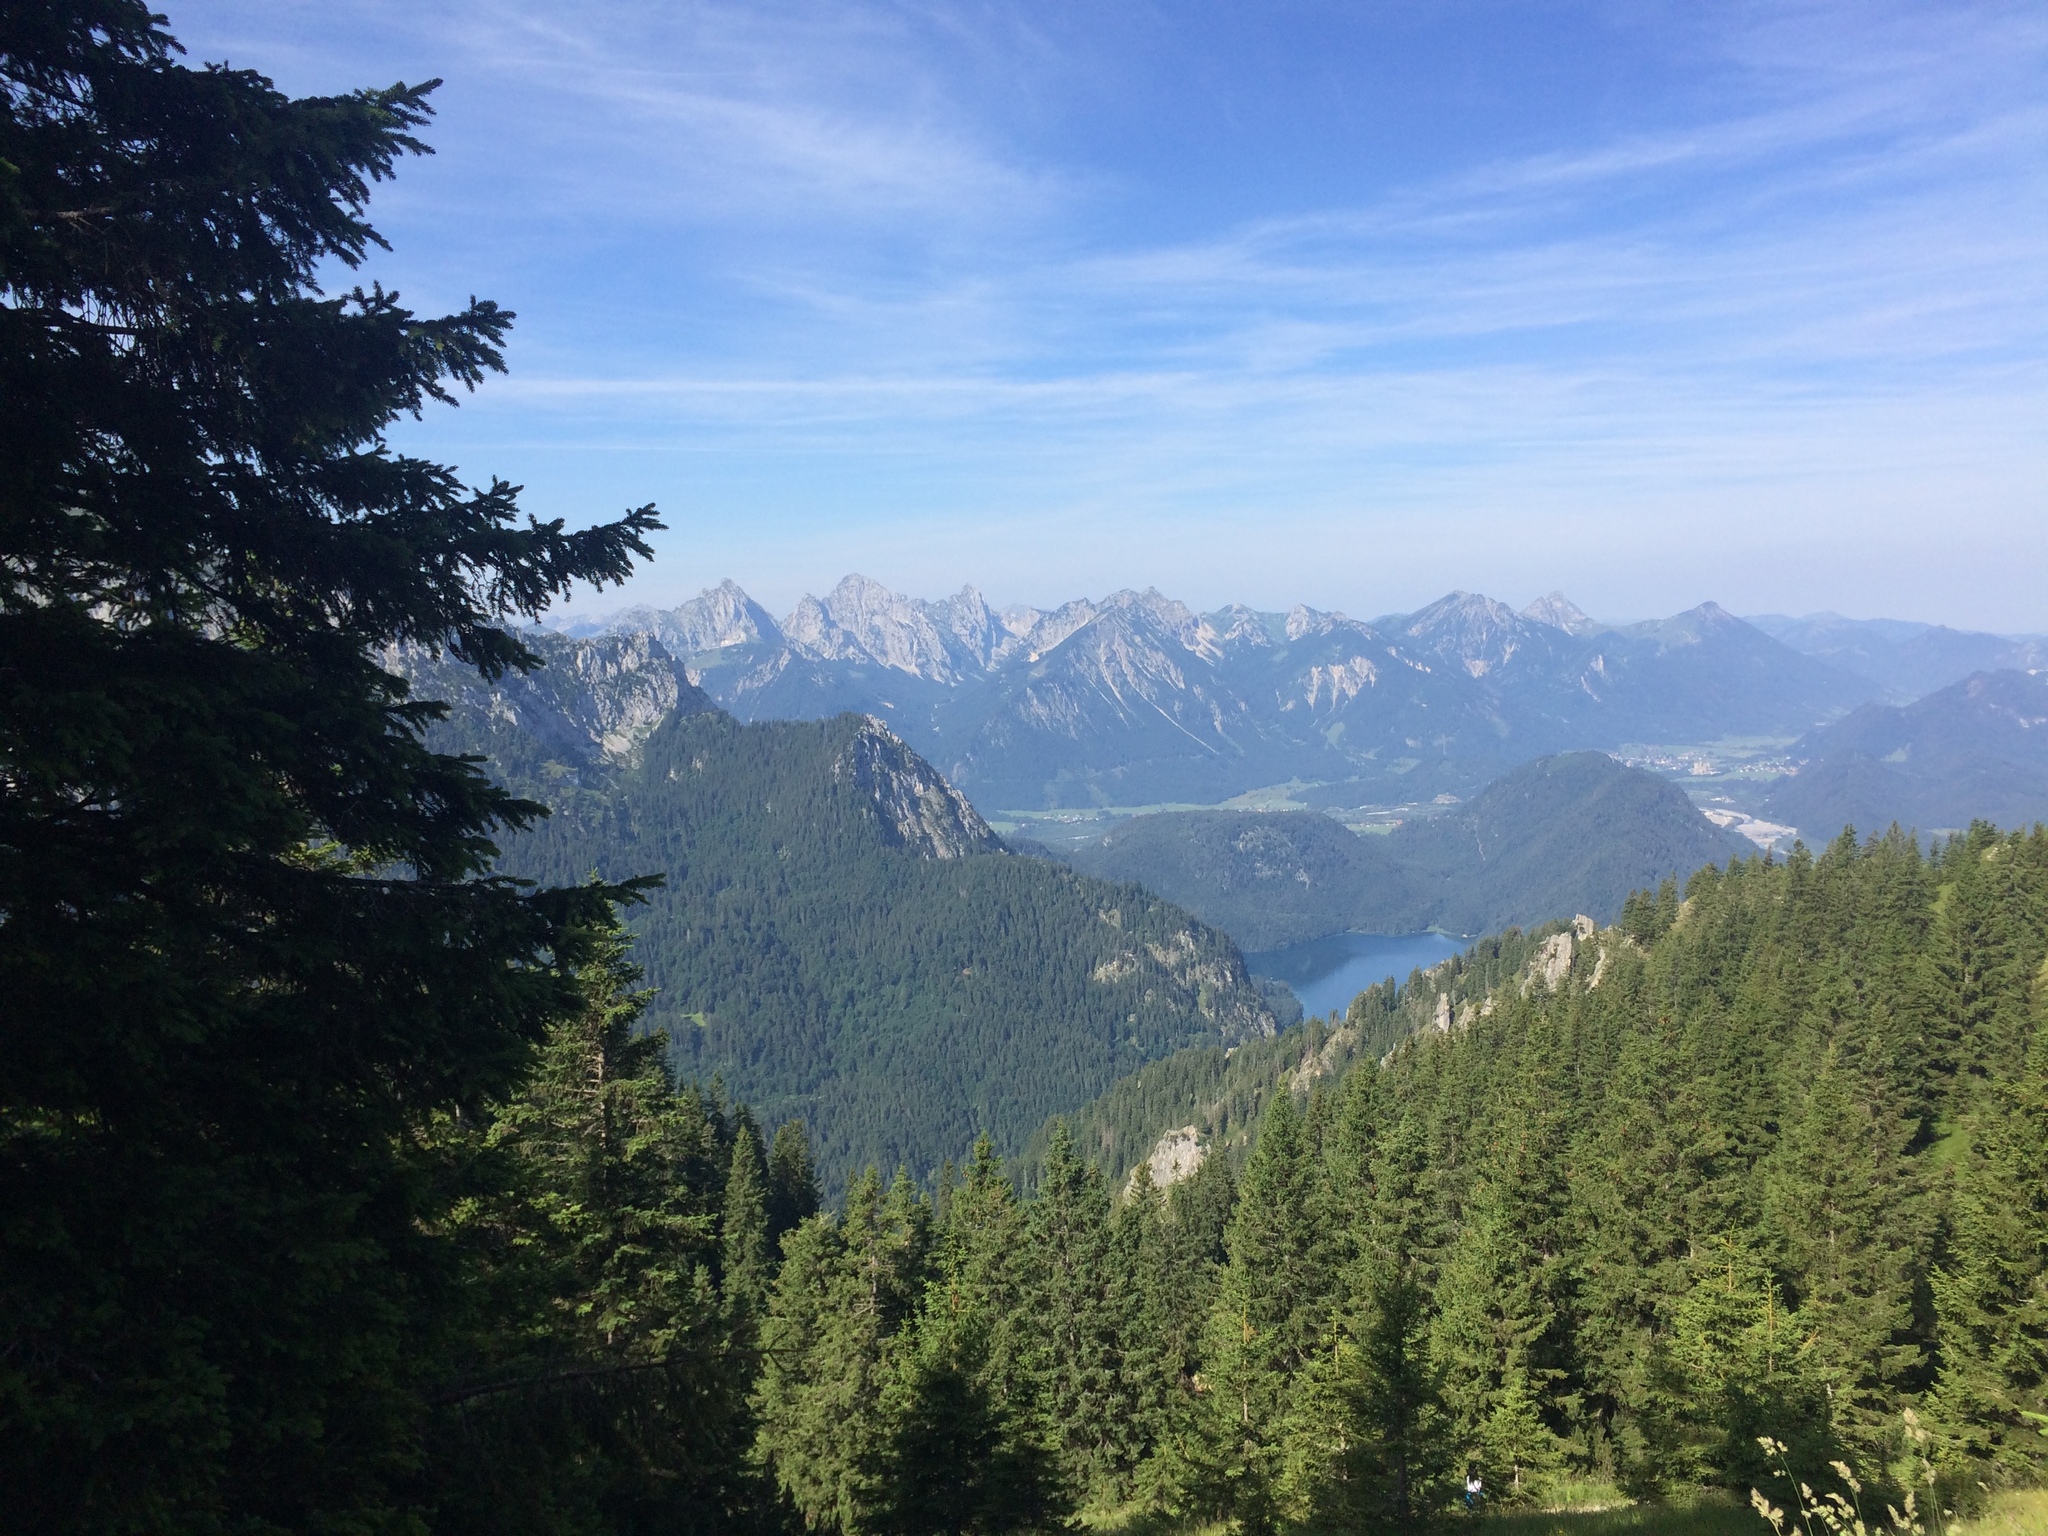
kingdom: Plantae
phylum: Tracheophyta
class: Pinopsida
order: Pinales
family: Pinaceae
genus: Picea
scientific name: Picea abies
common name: Norway spruce
